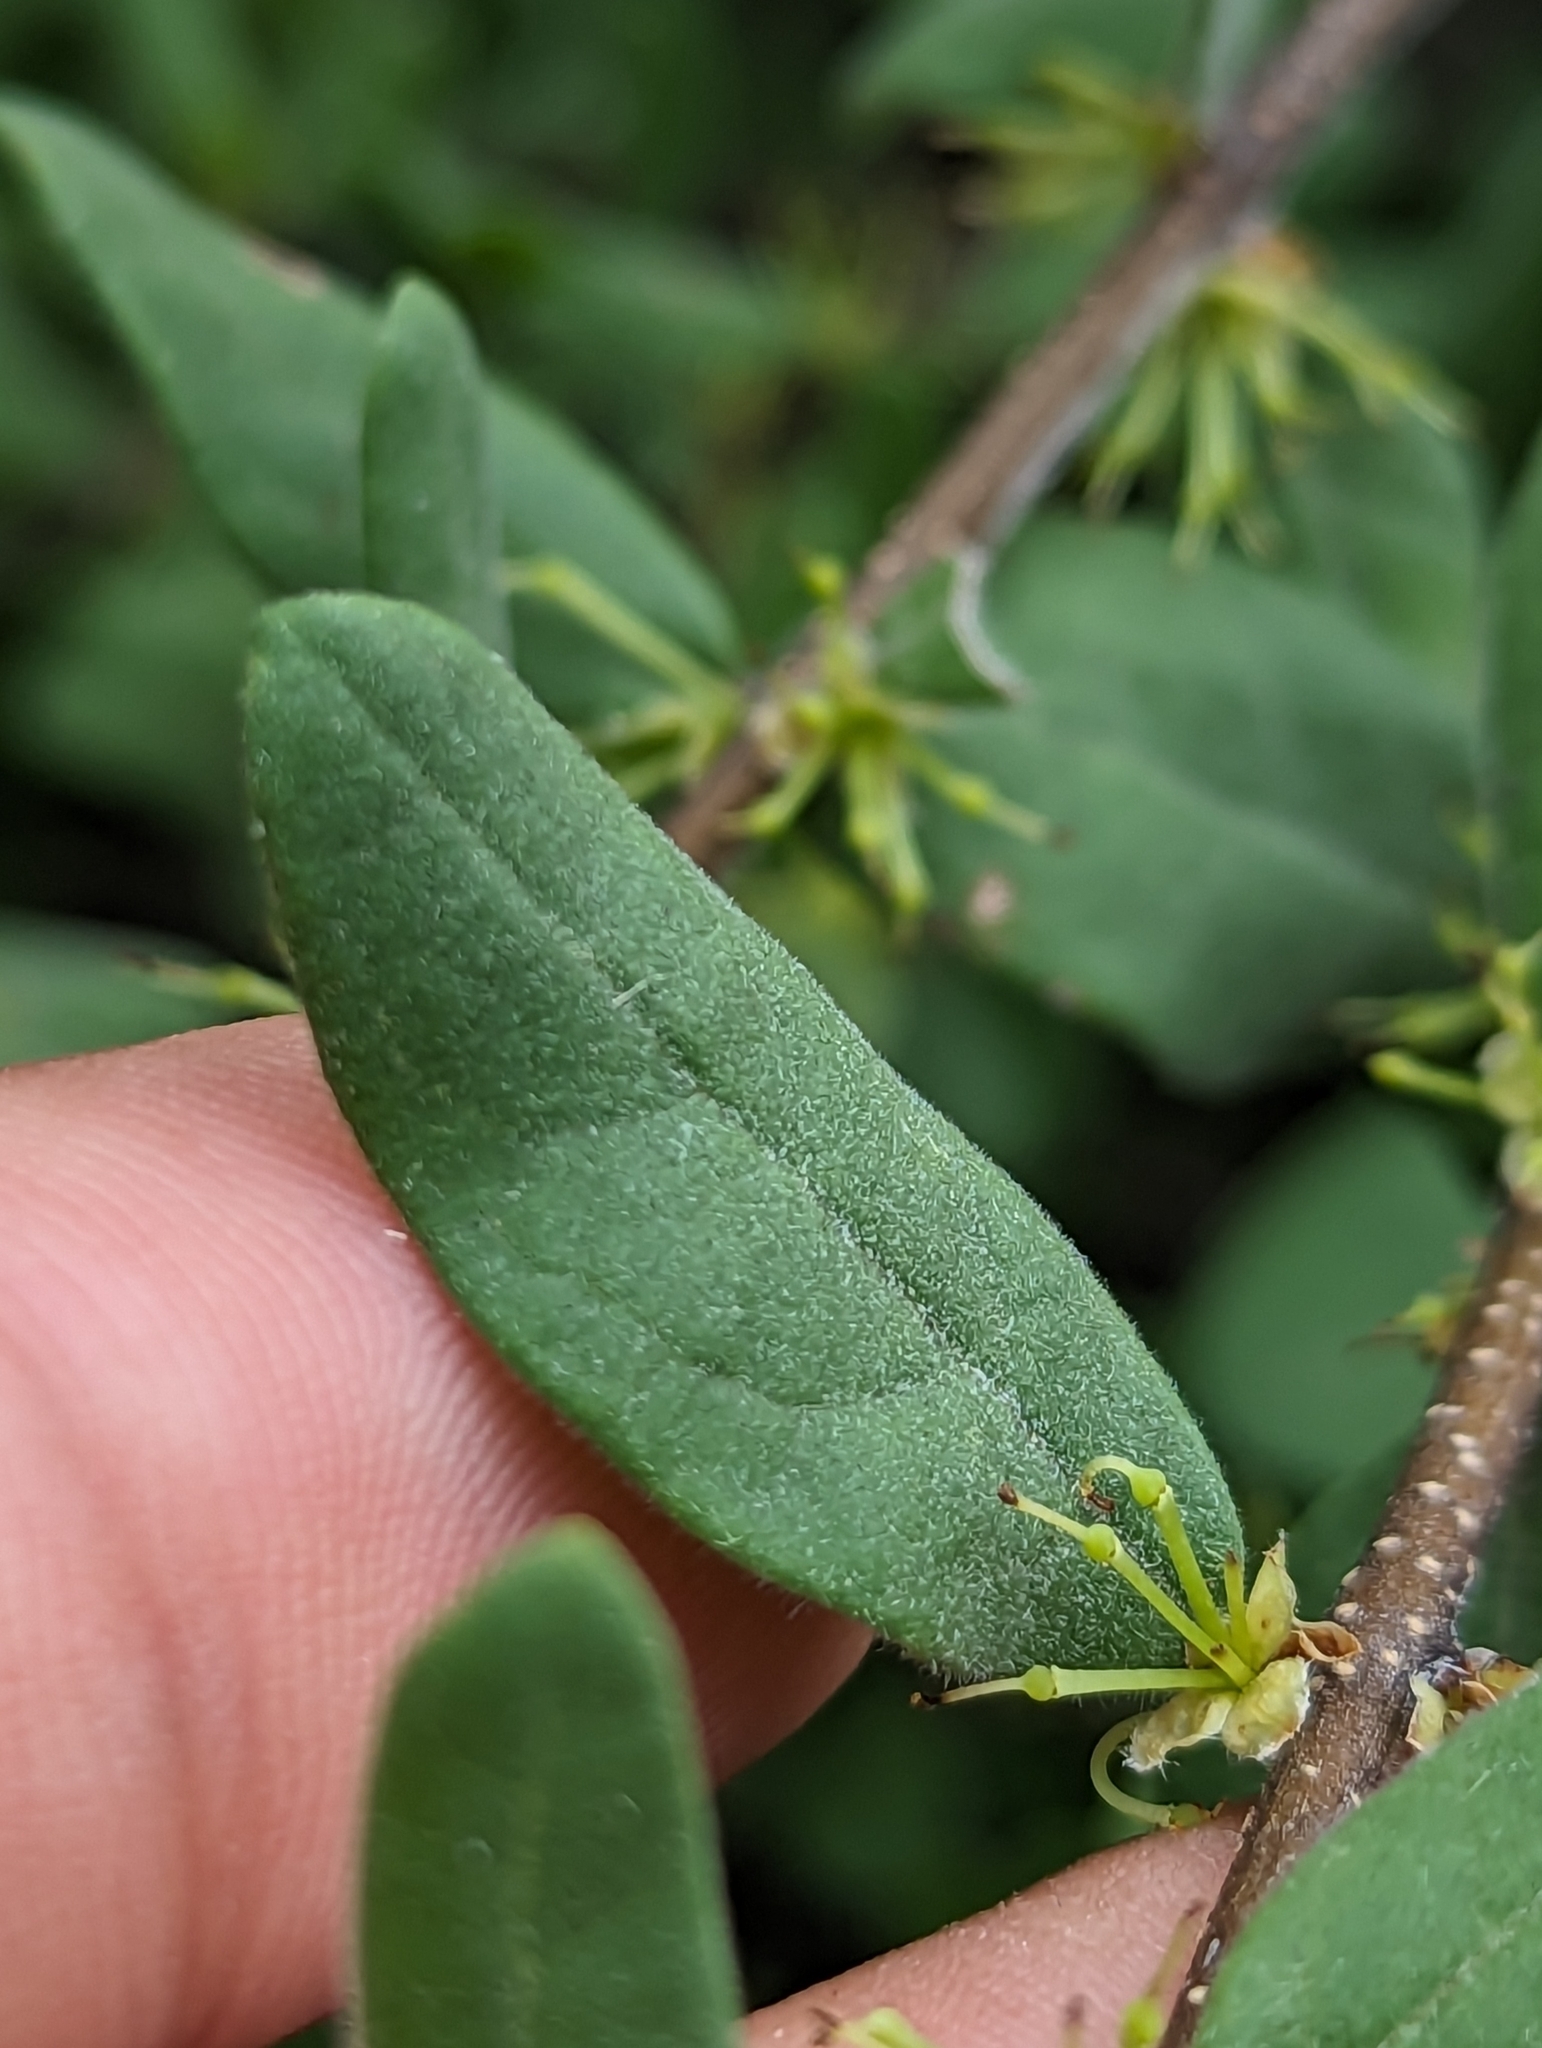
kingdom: Plantae
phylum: Tracheophyta
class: Magnoliopsida
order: Lamiales
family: Oleaceae
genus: Forestiera
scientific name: Forestiera pubescens
